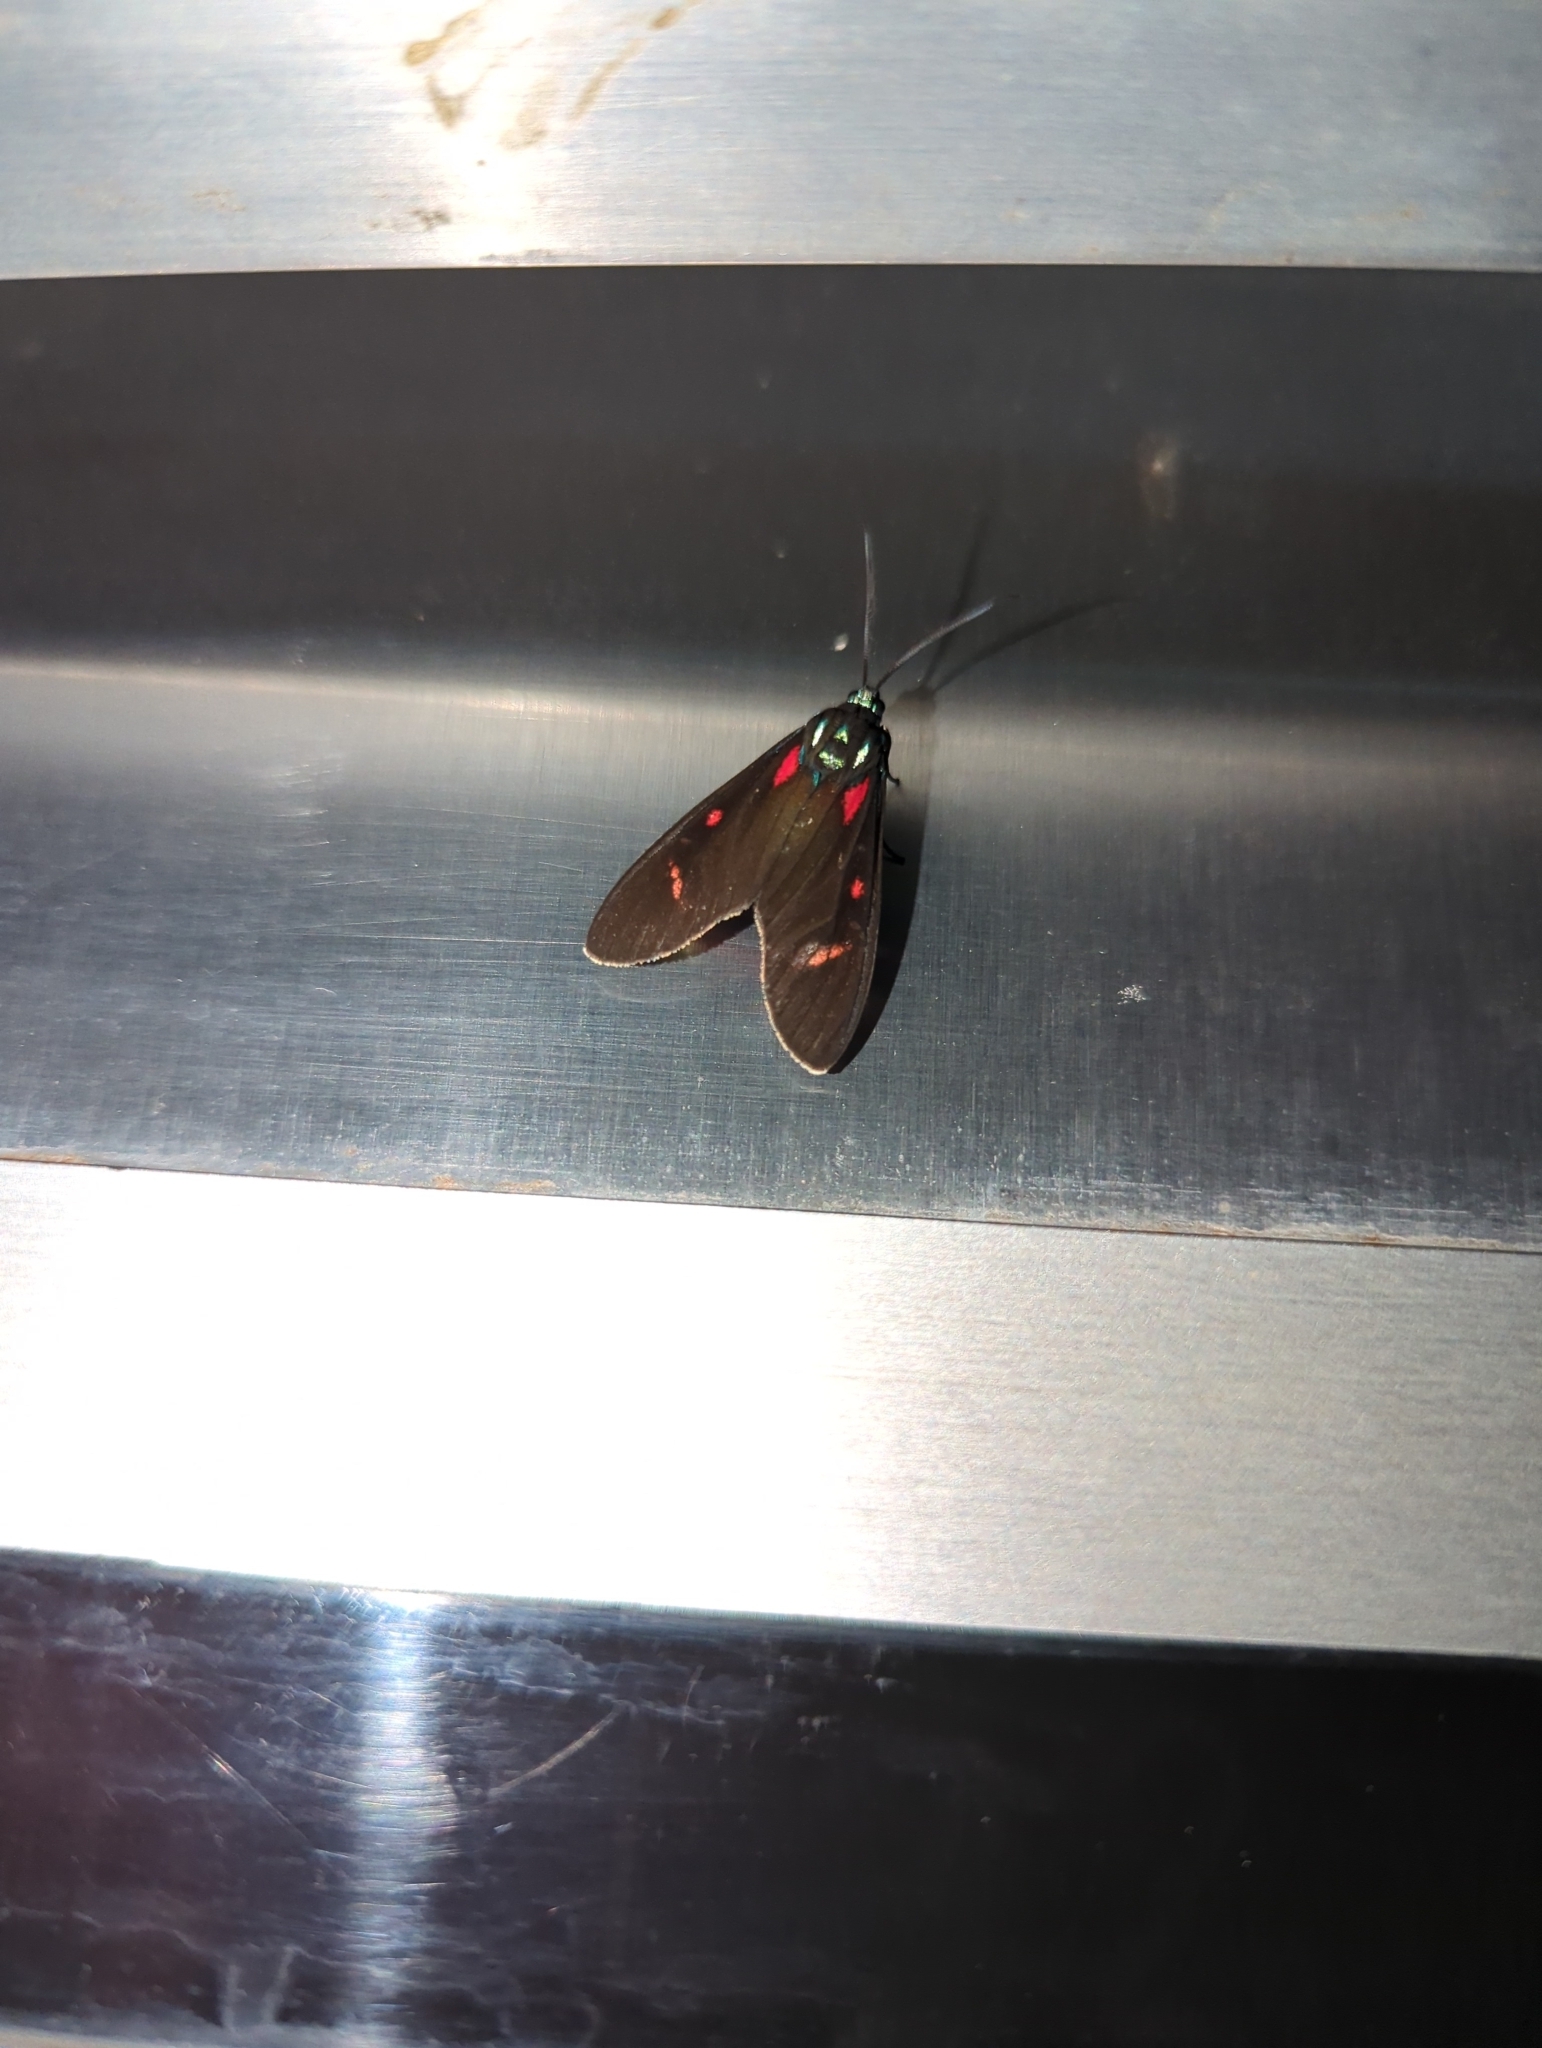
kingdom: Animalia
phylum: Arthropoda
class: Insecta
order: Lepidoptera
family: Erebidae
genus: Cyanopepla
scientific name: Cyanopepla alonzo
